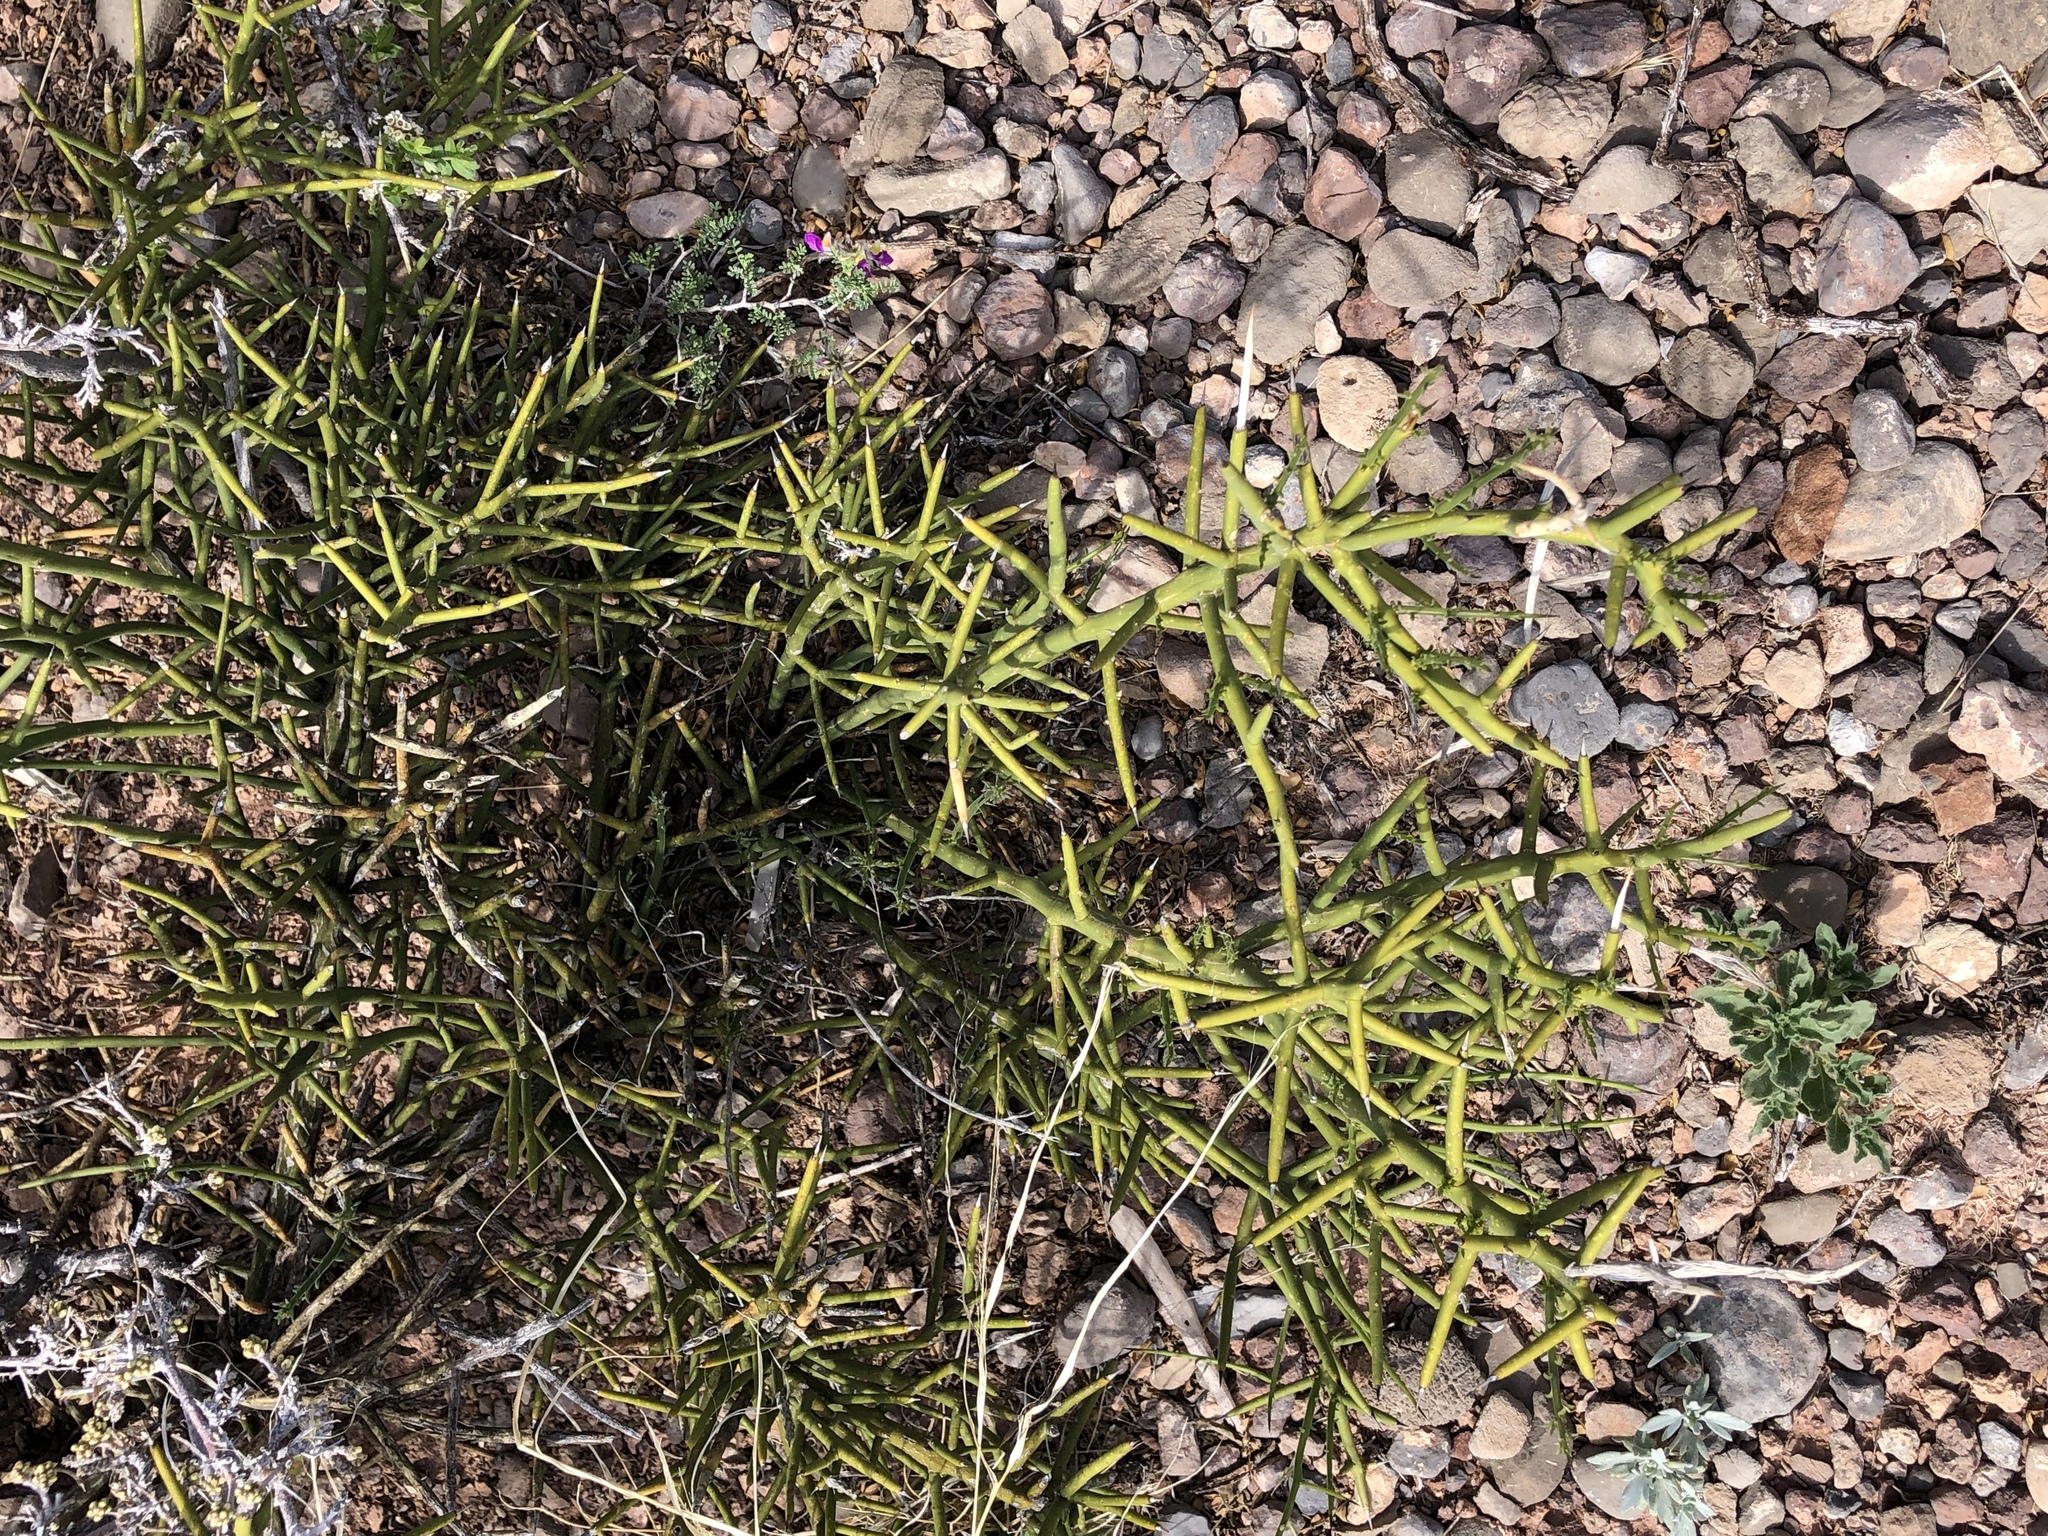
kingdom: Plantae
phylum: Tracheophyta
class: Magnoliopsida
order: Brassicales
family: Koeberliniaceae
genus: Koeberlinia
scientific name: Koeberlinia spinosa
